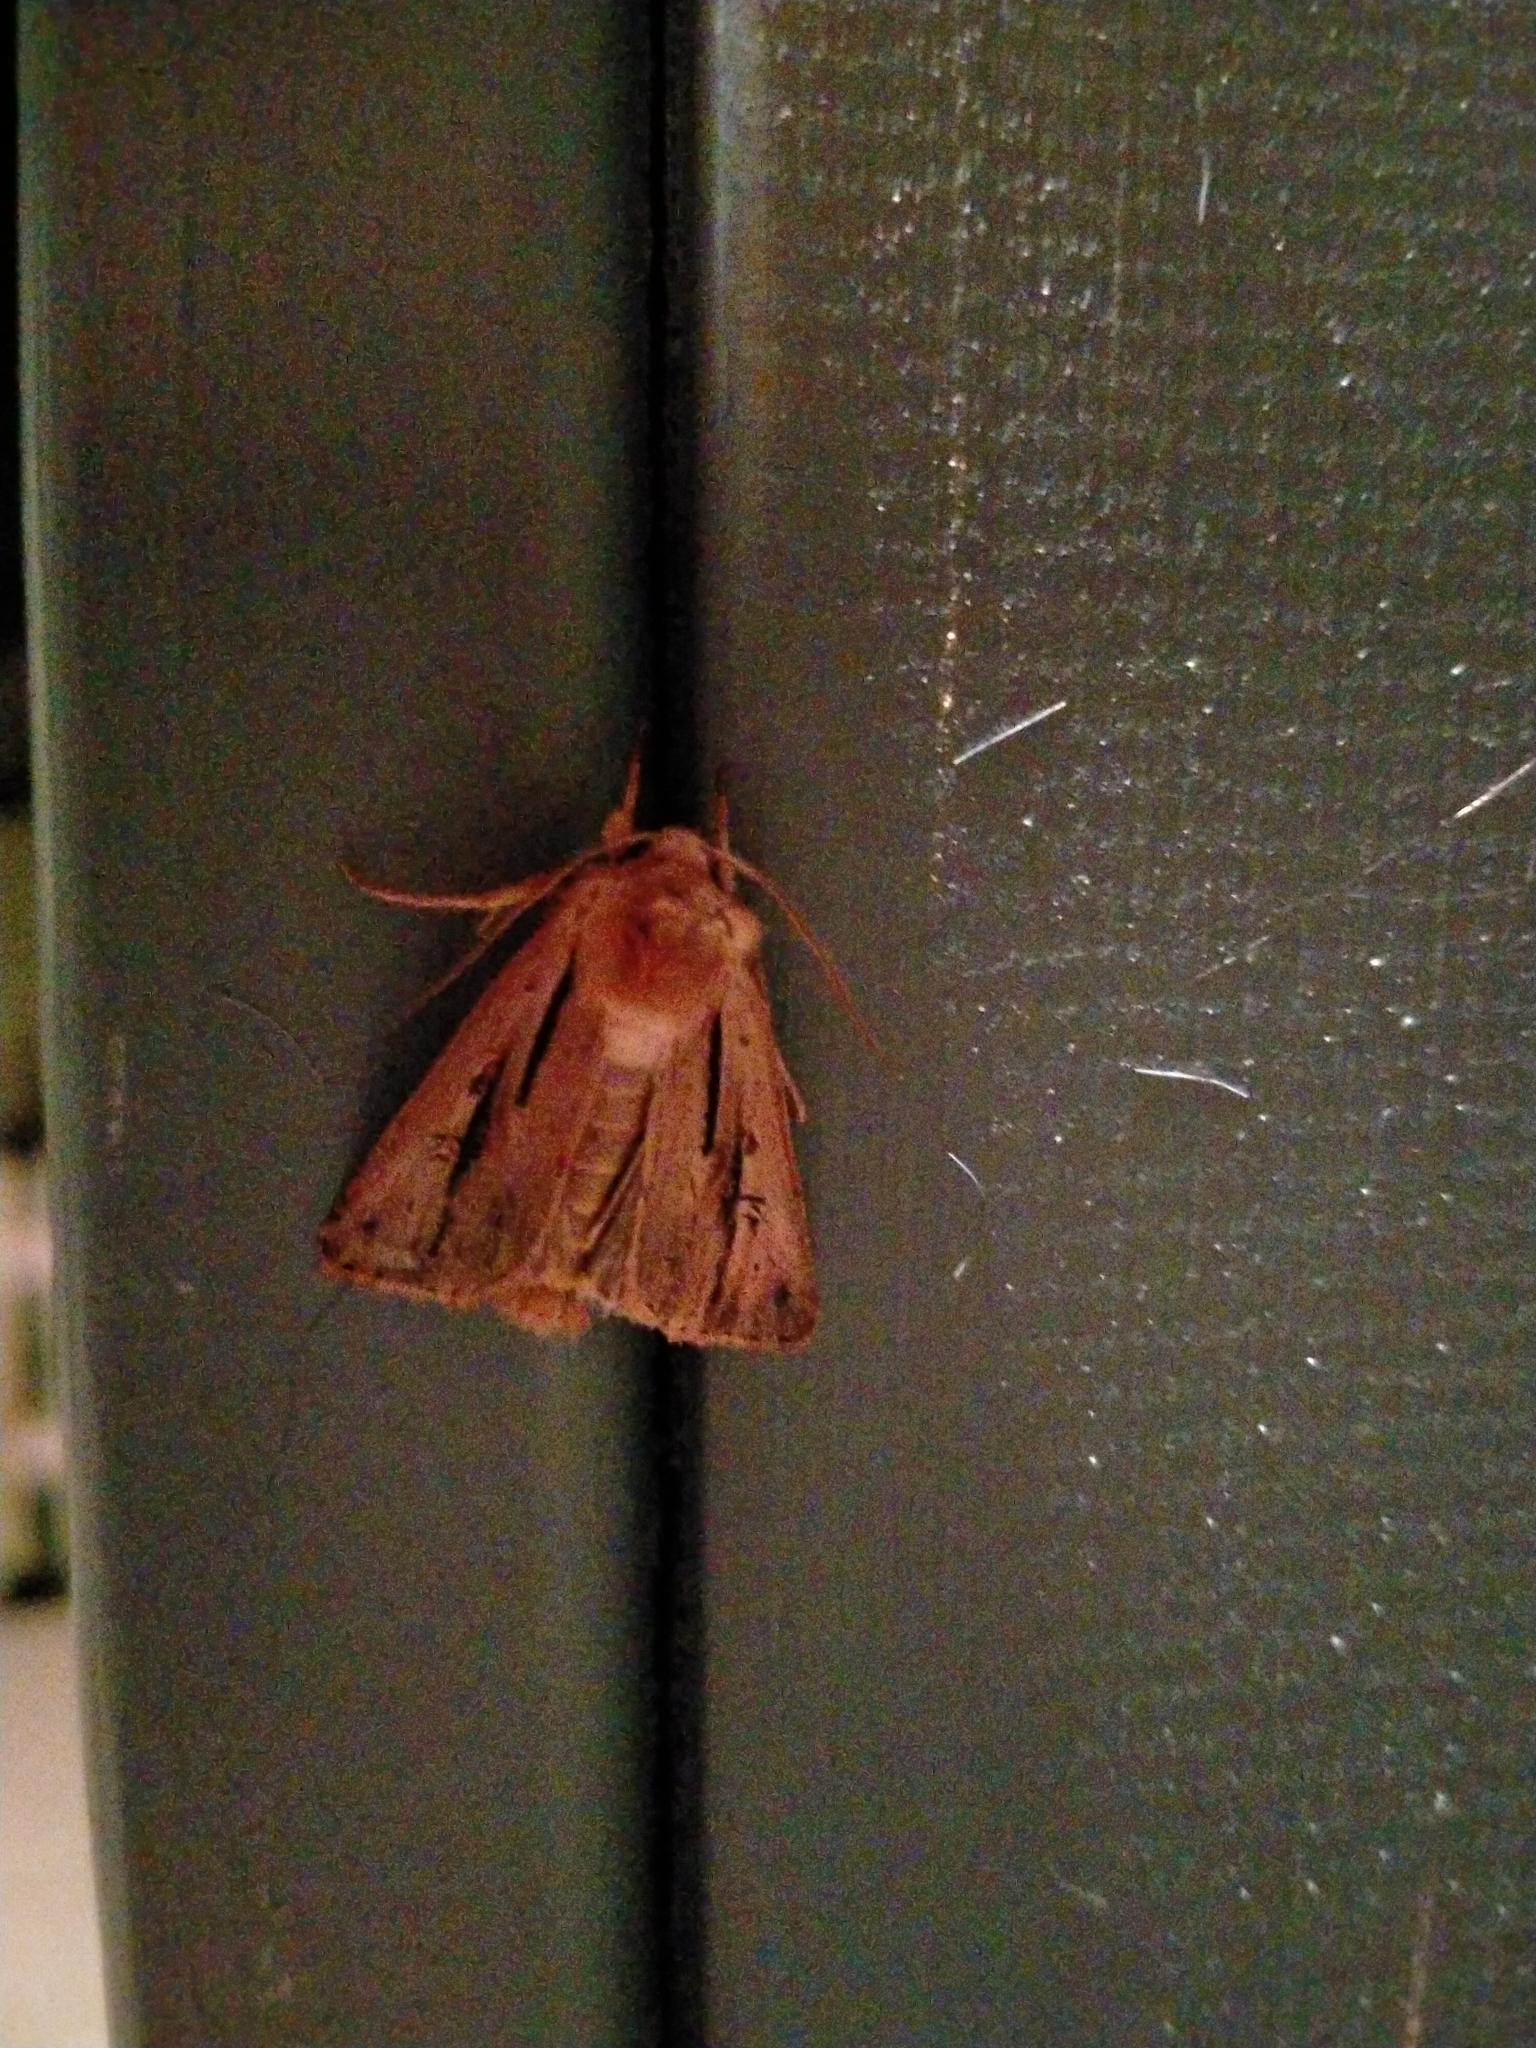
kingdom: Animalia
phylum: Arthropoda
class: Insecta
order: Lepidoptera
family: Noctuidae
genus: Ichneutica
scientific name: Ichneutica propria
